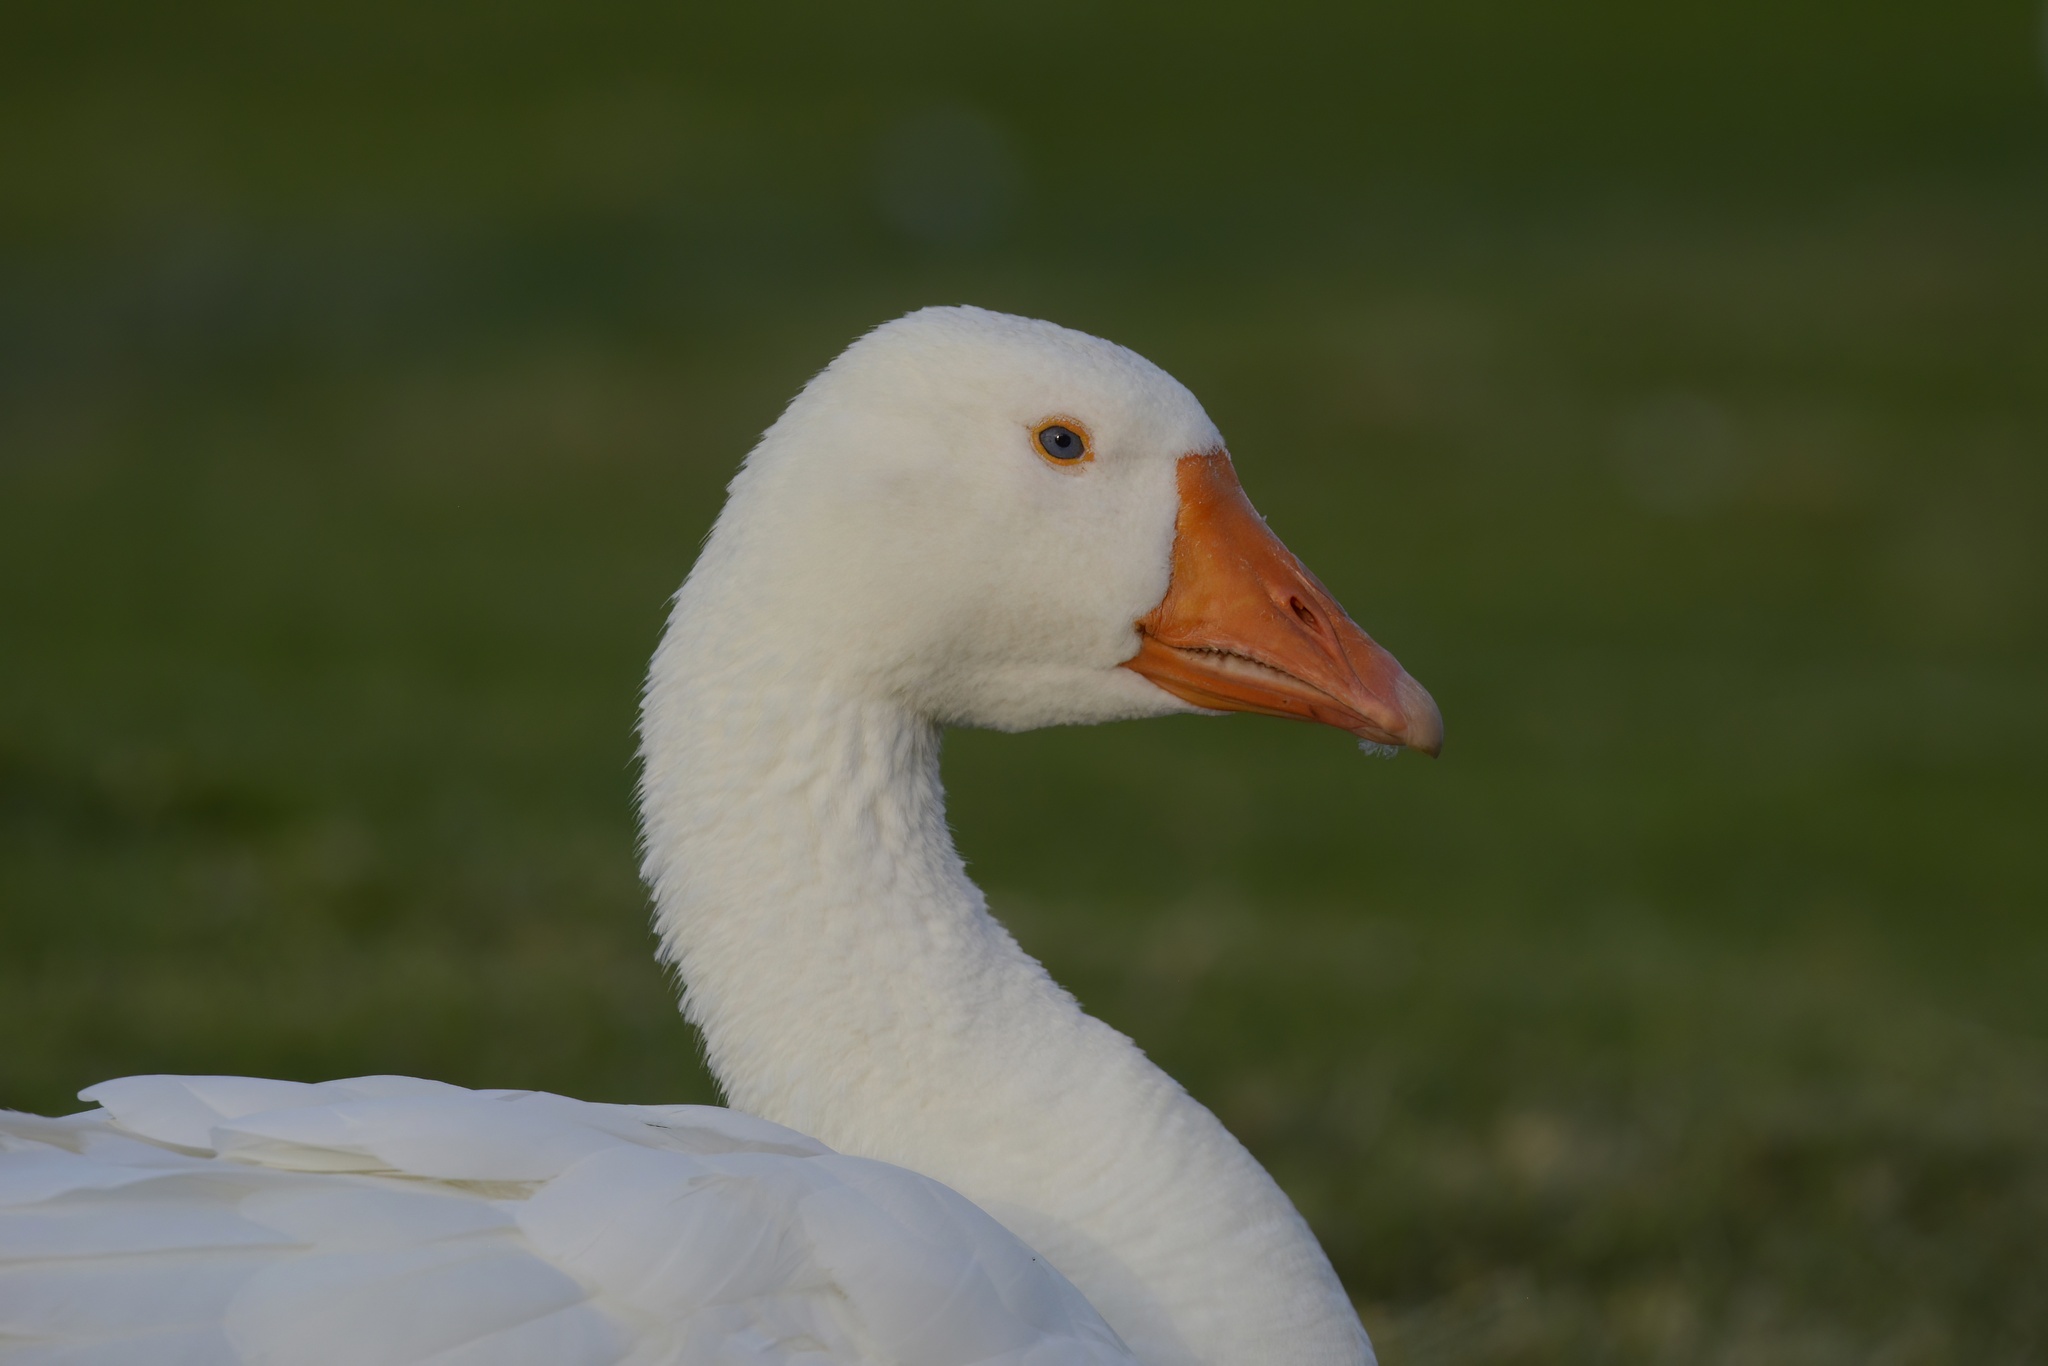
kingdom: Animalia
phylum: Chordata
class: Aves
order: Anseriformes
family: Anatidae
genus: Anser
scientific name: Anser anser
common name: Greylag goose
